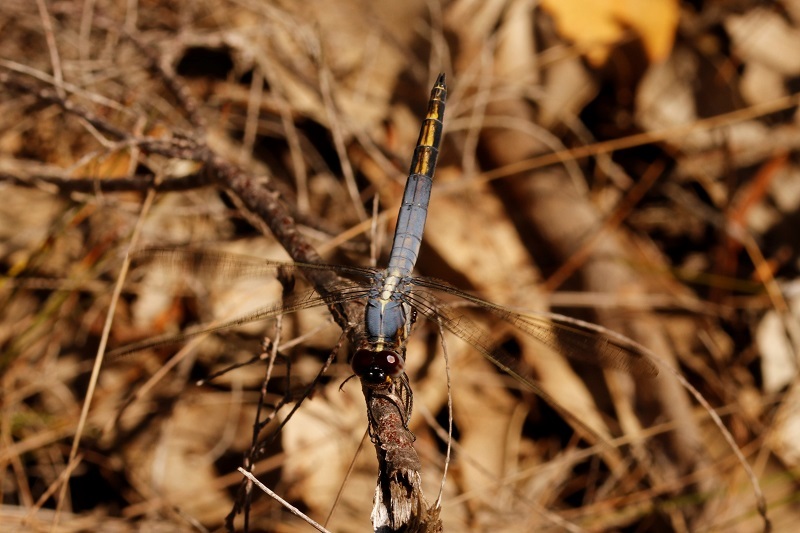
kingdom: Animalia
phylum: Arthropoda
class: Insecta
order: Odonata
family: Libellulidae
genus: Nesciothemis
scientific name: Nesciothemis farinosa
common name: Eastern blacktail
